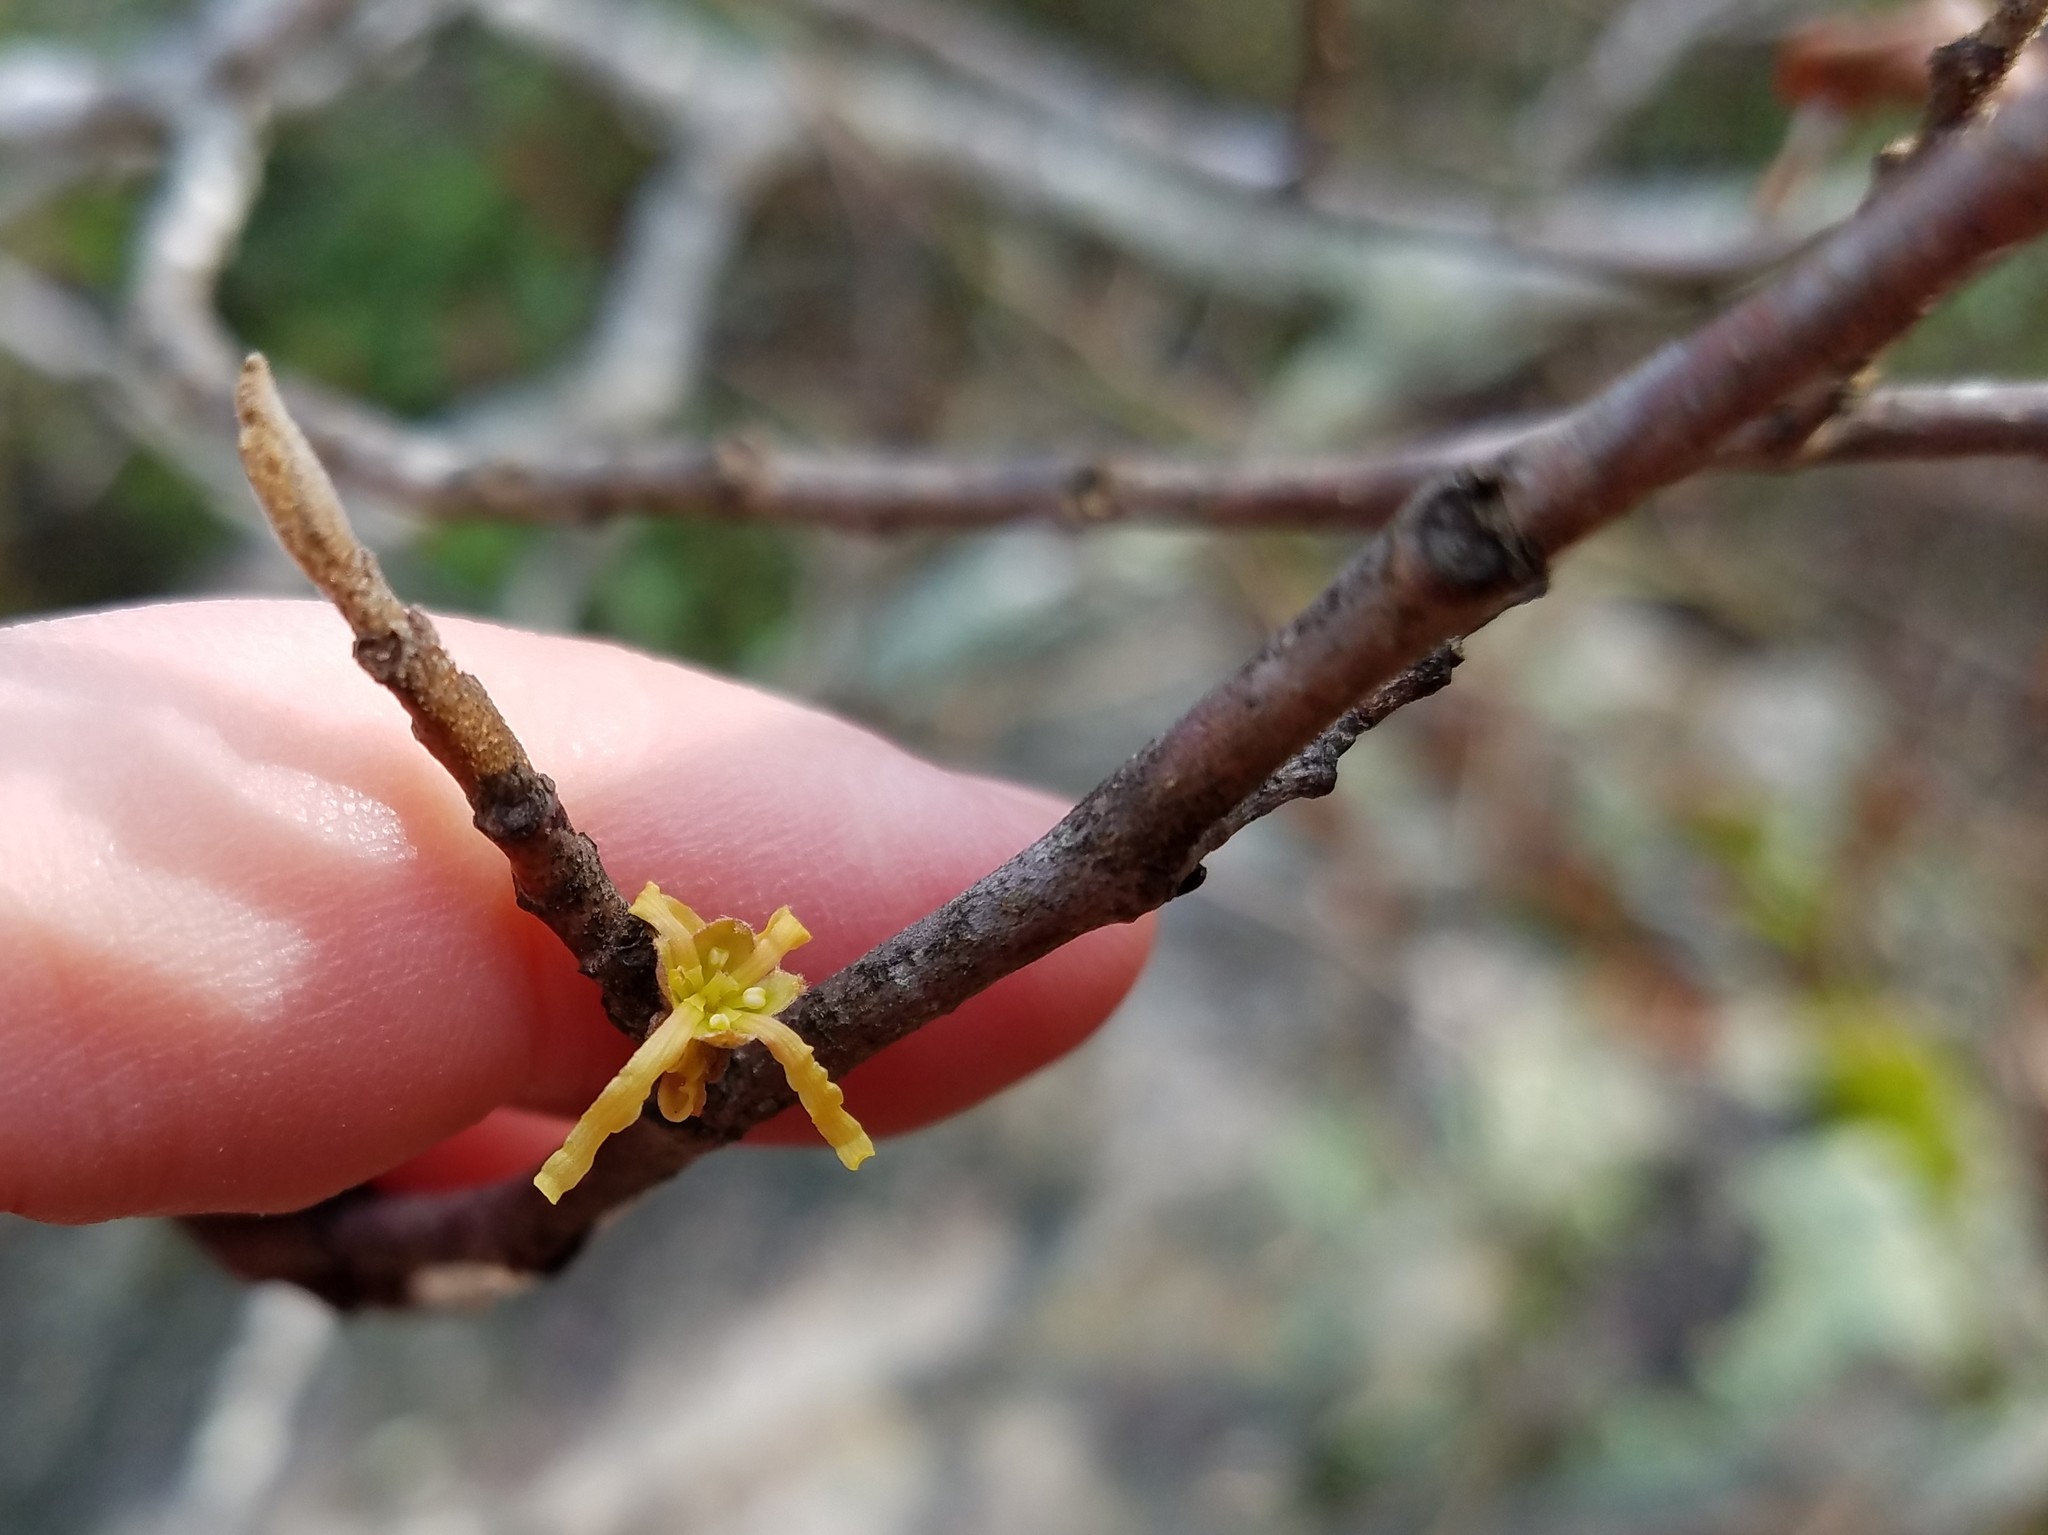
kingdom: Plantae
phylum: Tracheophyta
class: Magnoliopsida
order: Saxifragales
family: Hamamelidaceae
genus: Hamamelis
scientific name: Hamamelis virginiana
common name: Witch-hazel
